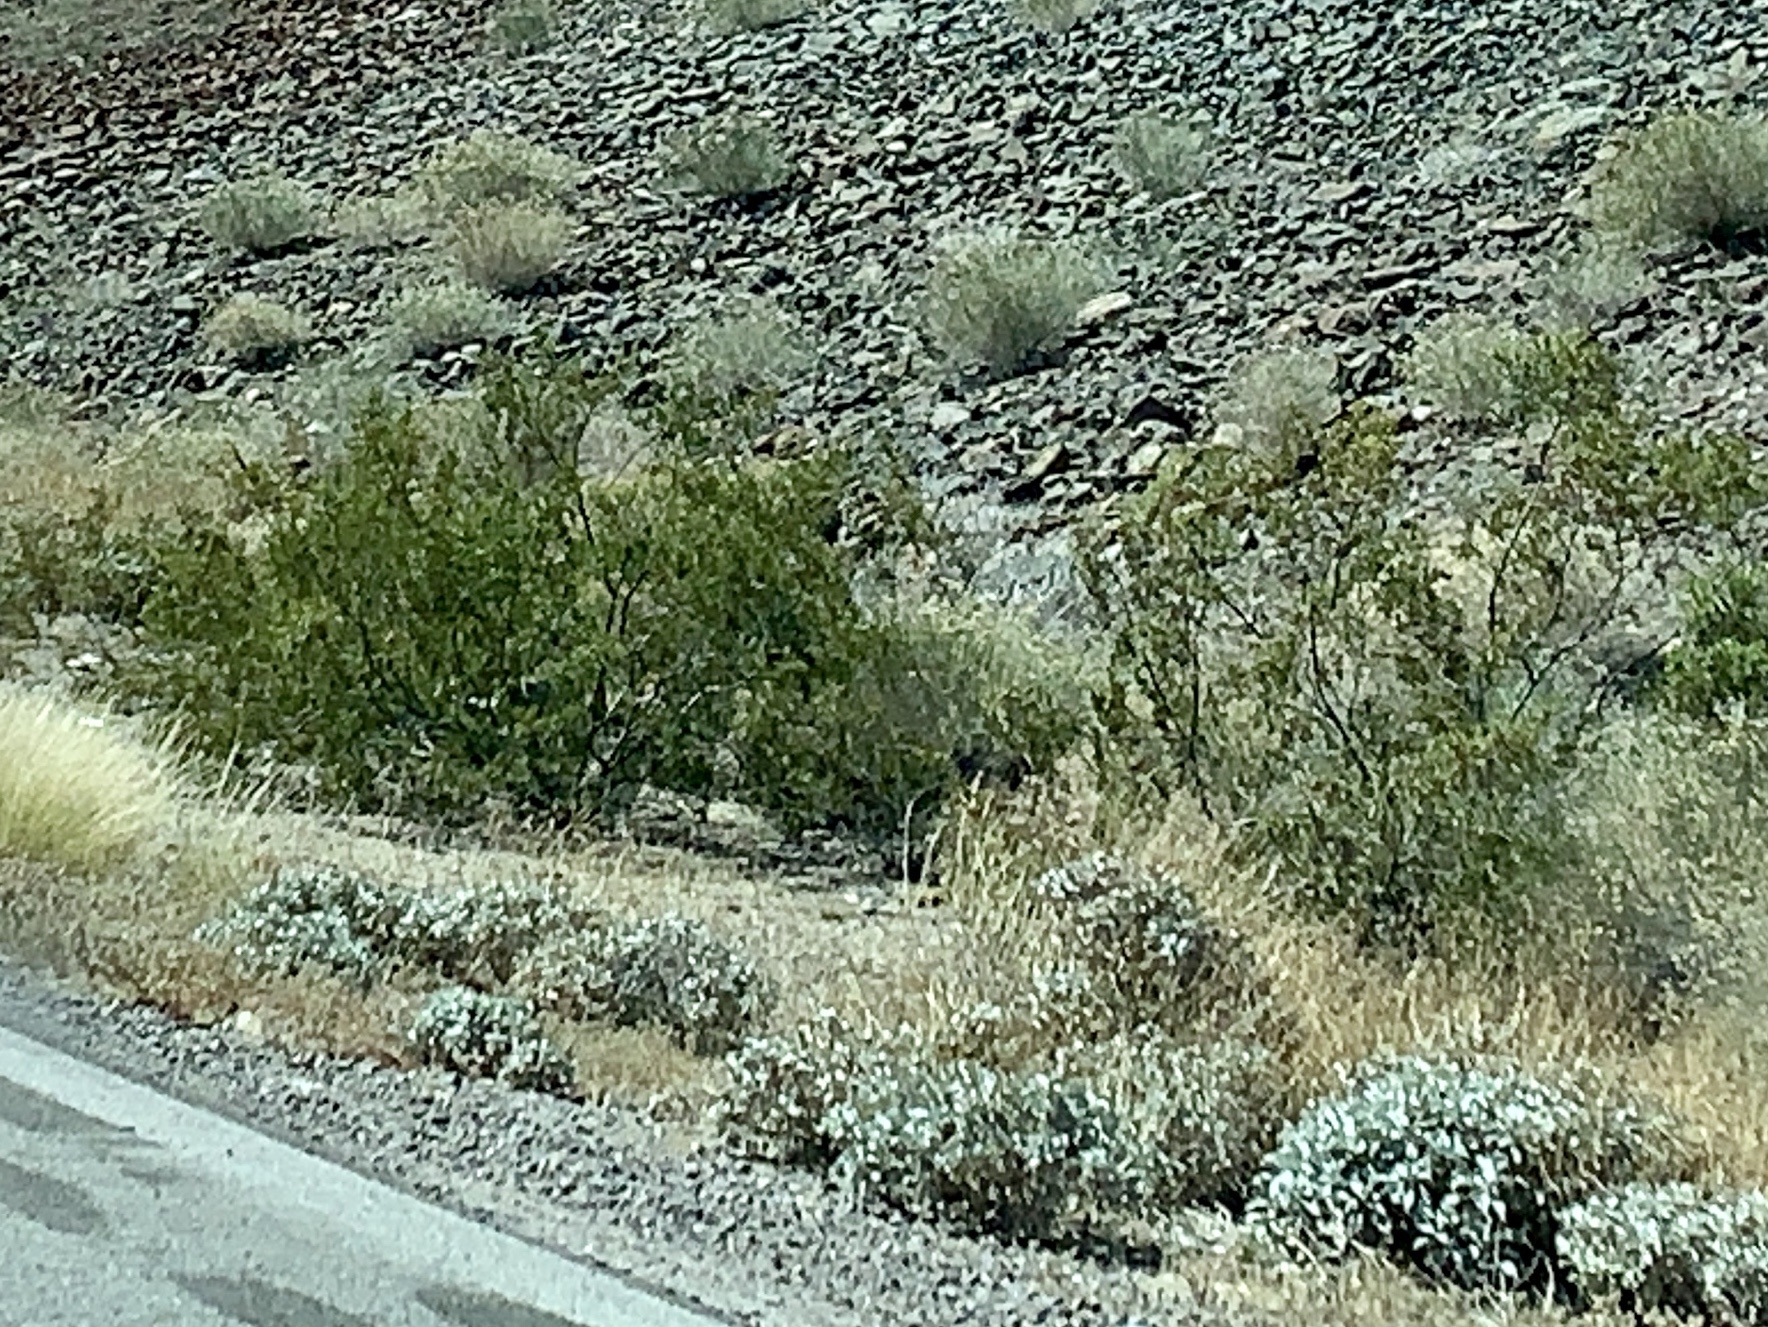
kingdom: Plantae
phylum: Tracheophyta
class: Magnoliopsida
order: Zygophyllales
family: Zygophyllaceae
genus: Larrea
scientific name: Larrea tridentata
